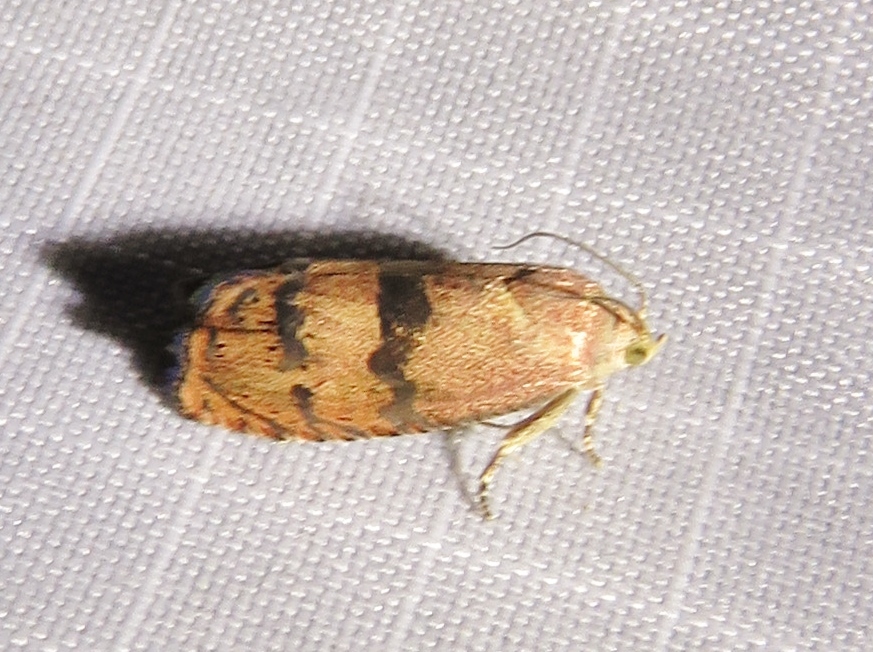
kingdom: Animalia
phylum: Arthropoda
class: Insecta
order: Lepidoptera
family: Tortricidae
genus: Cydia
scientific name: Cydia latiferreana
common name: Filbertworm moth
